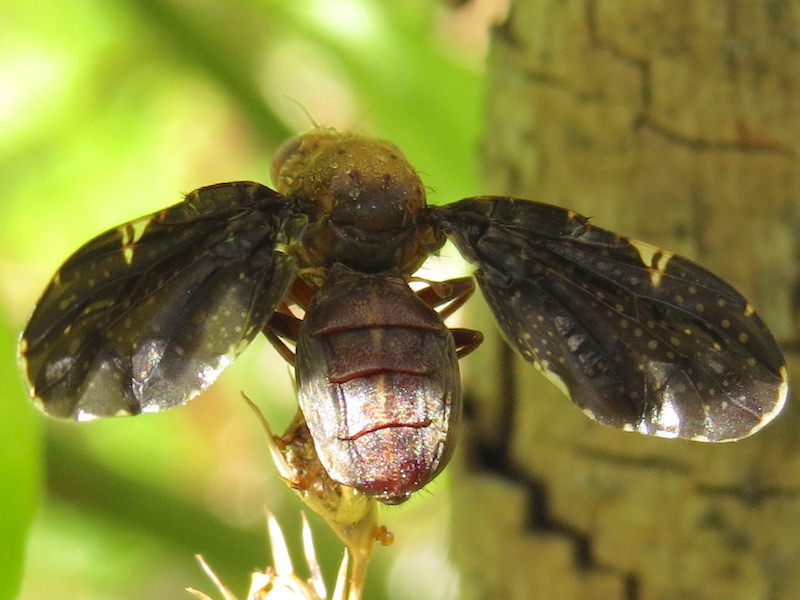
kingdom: Animalia
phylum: Arthropoda
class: Insecta
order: Diptera
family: Tephritidae
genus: Eurosta
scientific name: Eurosta comma
